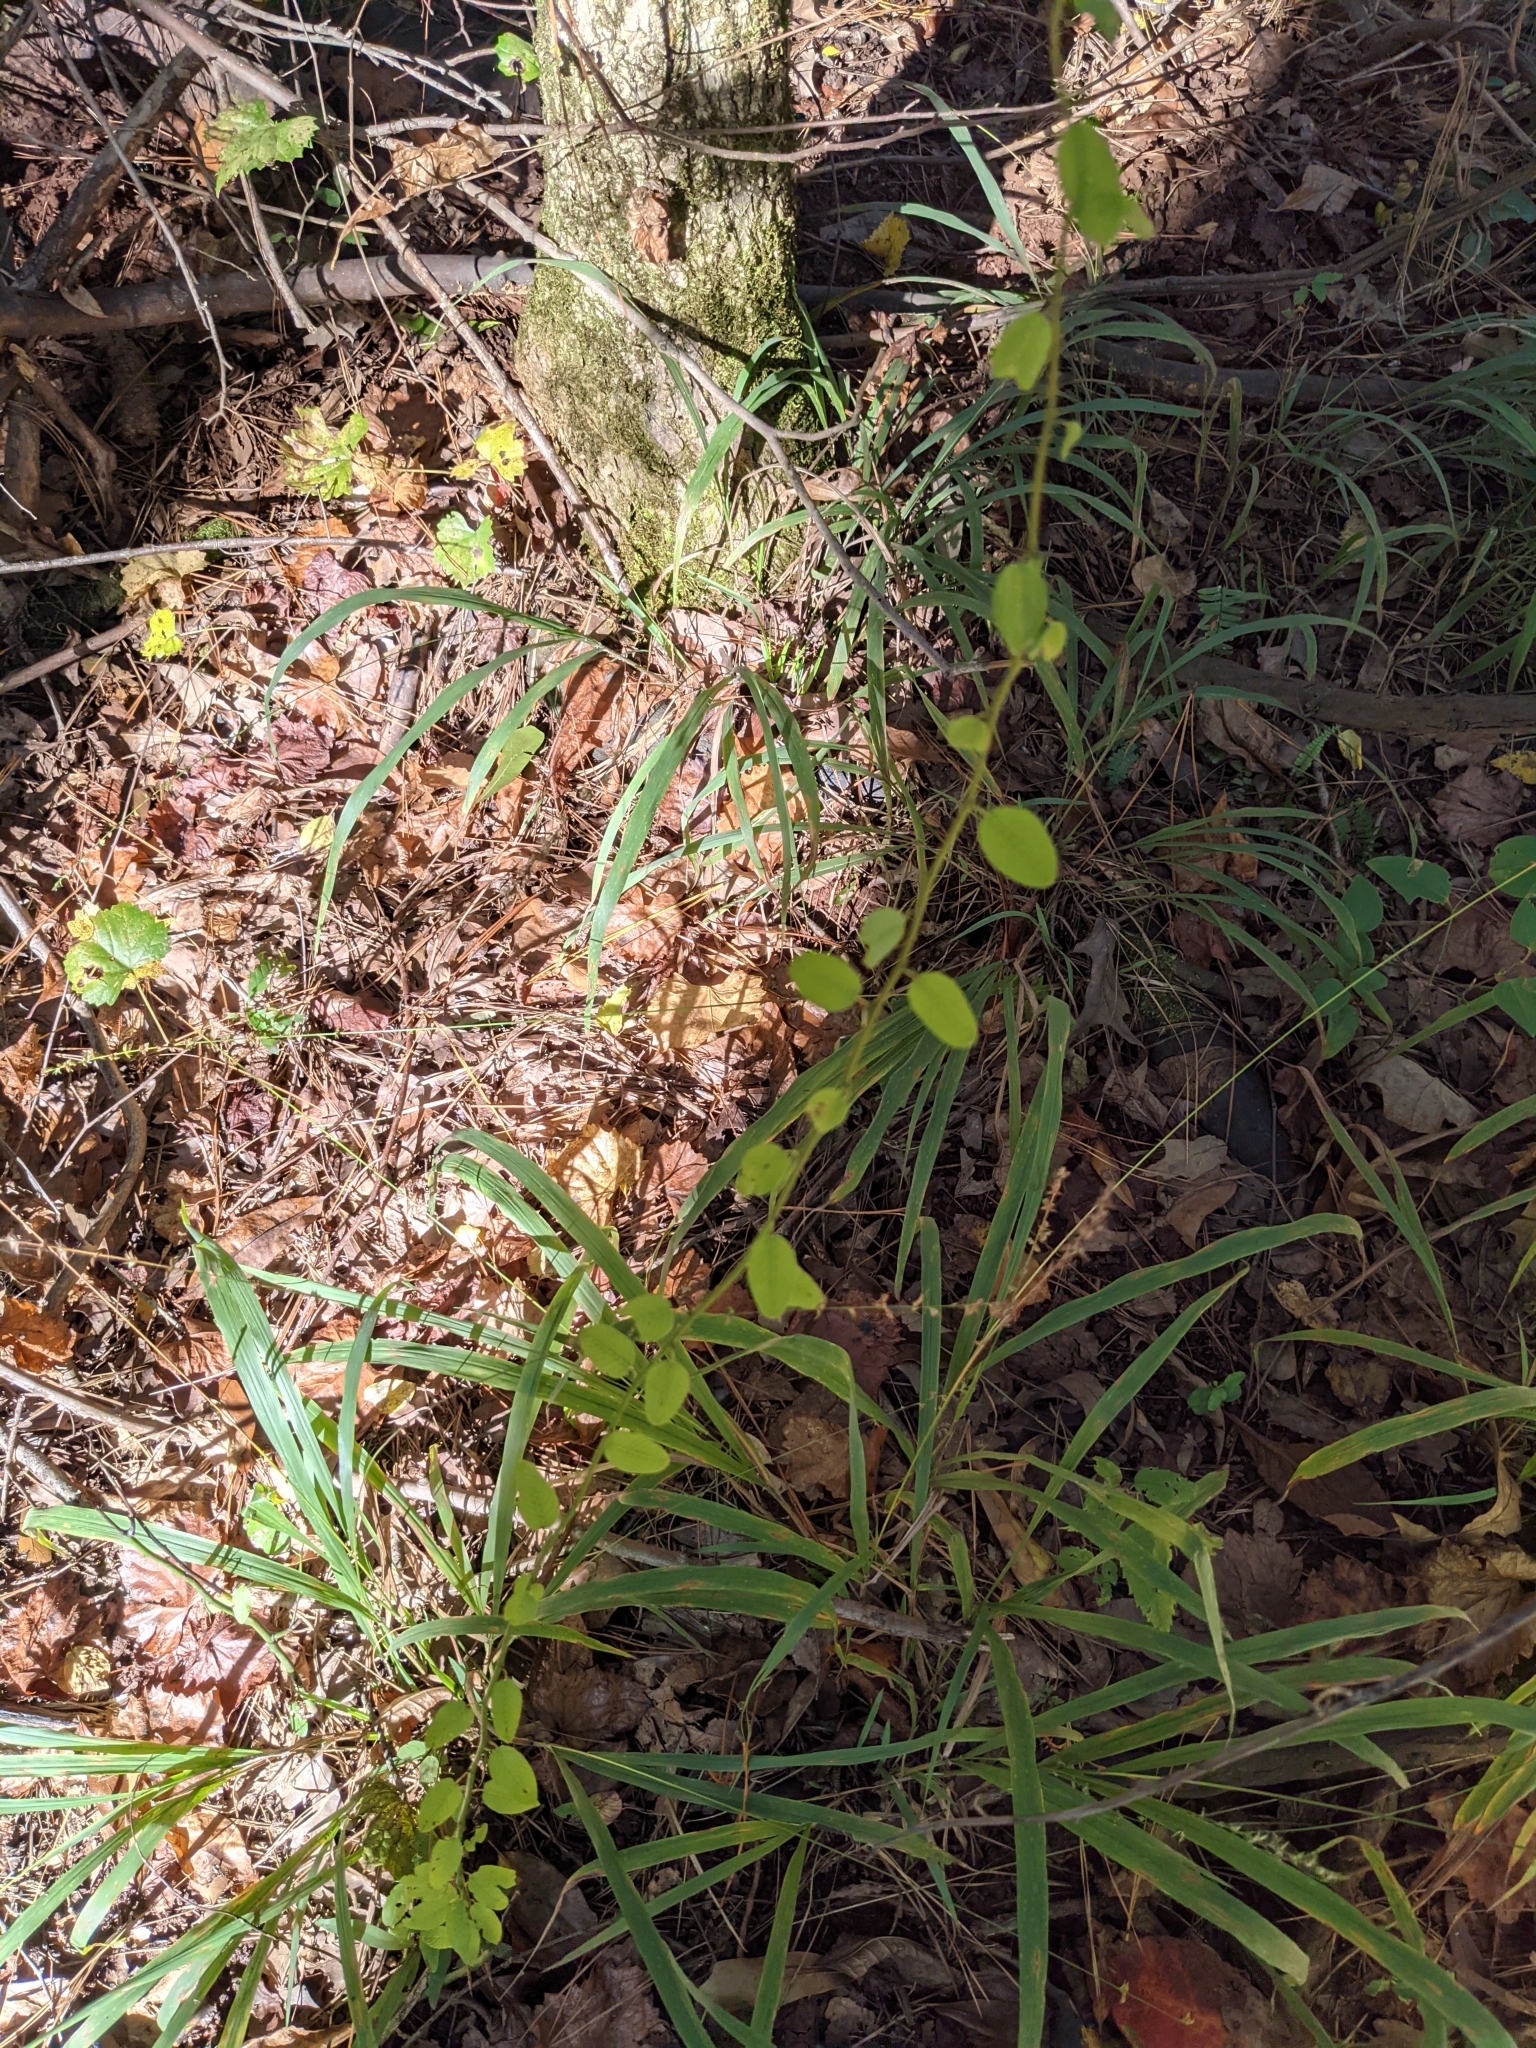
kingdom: Plantae
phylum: Tracheophyta
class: Magnoliopsida
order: Rosales
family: Rhamnaceae
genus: Berchemia
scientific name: Berchemia scandens
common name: Supplejack
